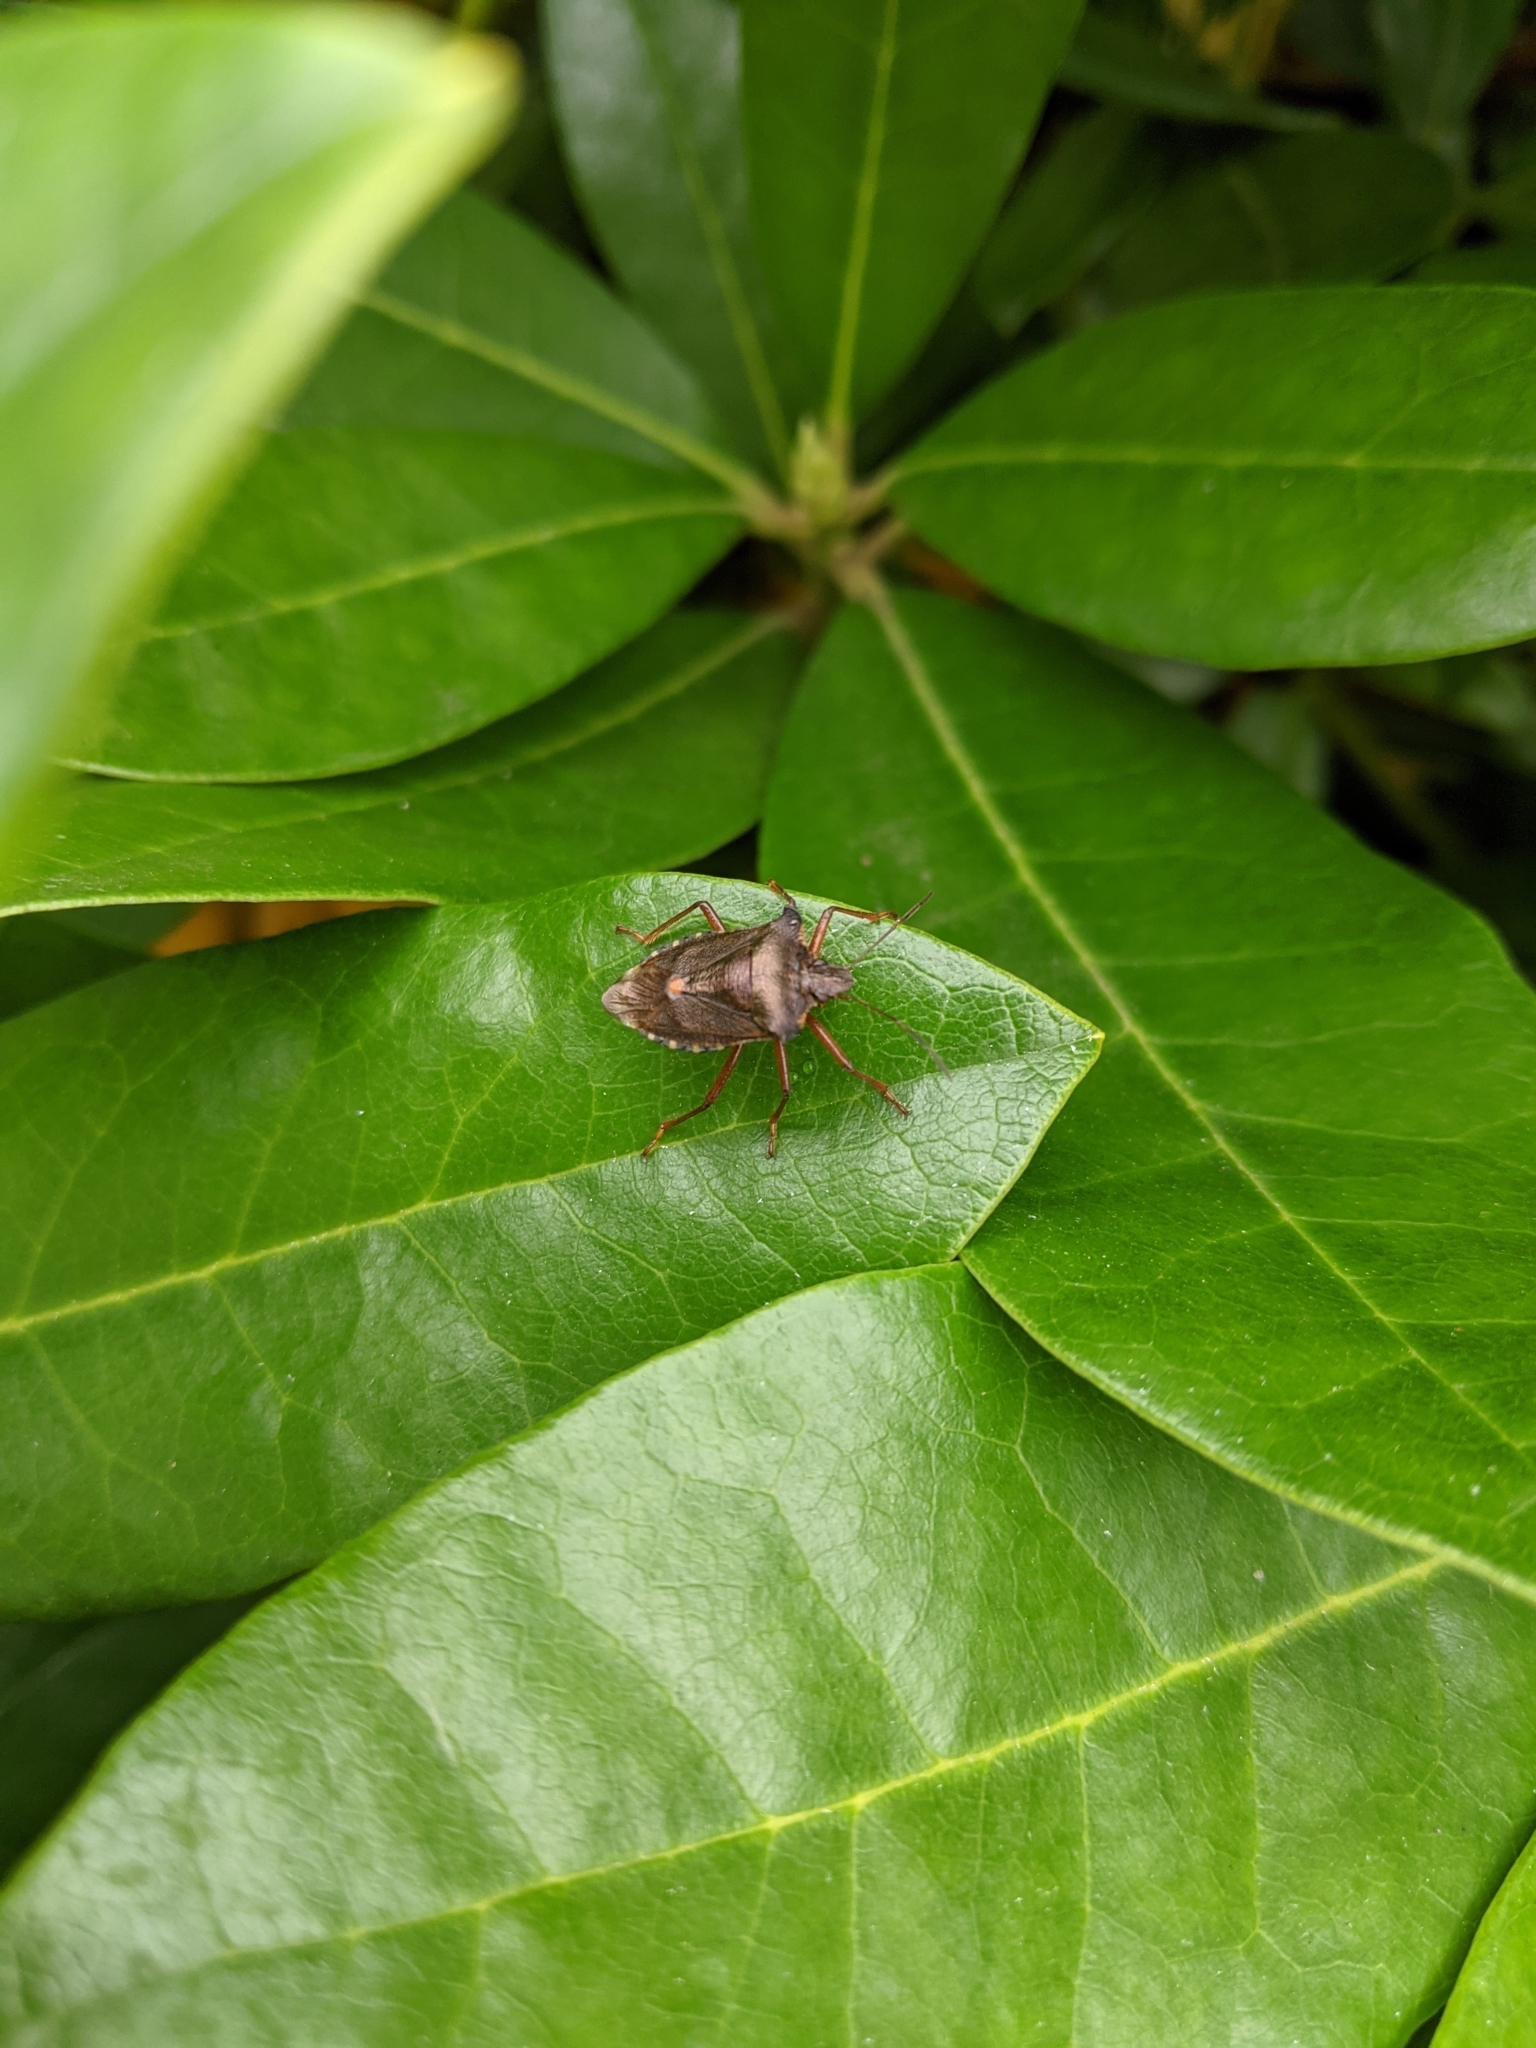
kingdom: Animalia
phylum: Arthropoda
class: Insecta
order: Hemiptera
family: Pentatomidae
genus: Pentatoma
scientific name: Pentatoma rufipes
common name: Forest bug
